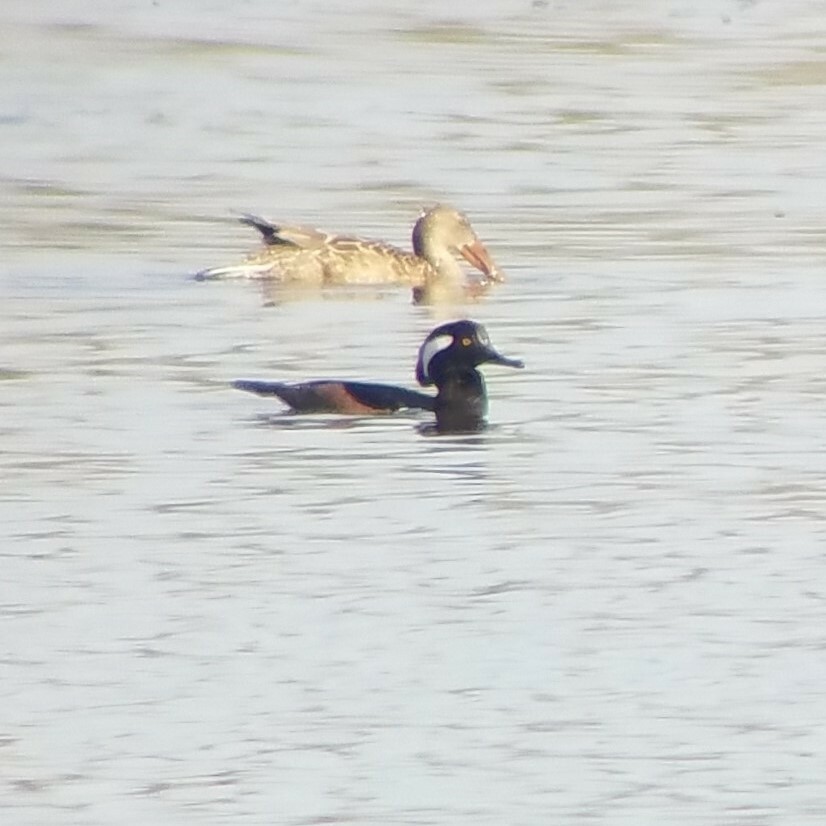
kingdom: Animalia
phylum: Chordata
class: Aves
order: Anseriformes
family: Anatidae
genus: Lophodytes
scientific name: Lophodytes cucullatus
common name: Hooded merganser
